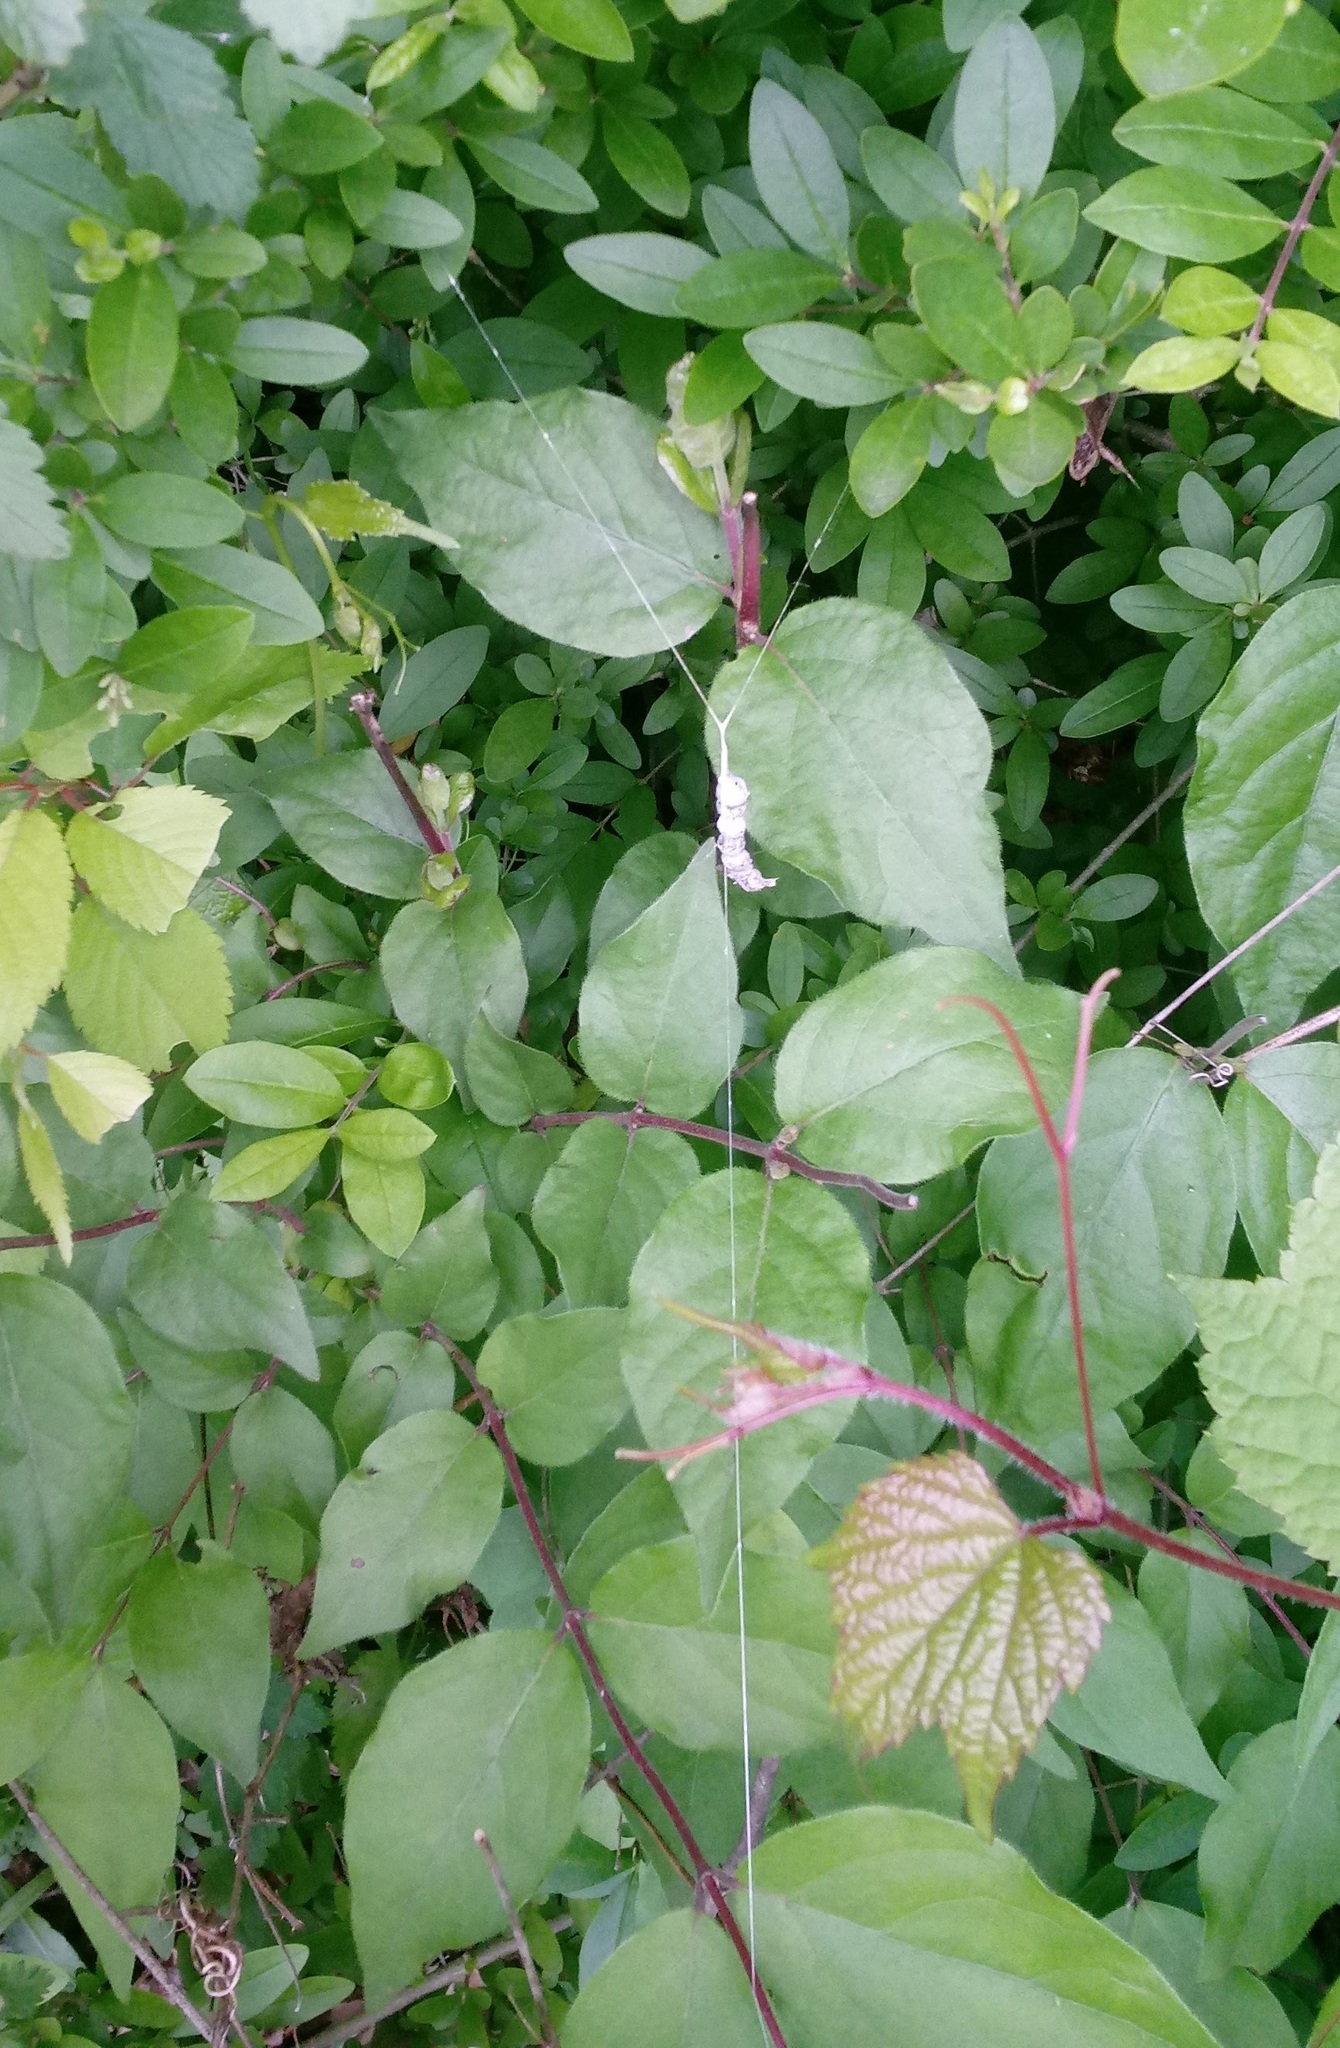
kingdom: Animalia
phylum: Arthropoda
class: Arachnida
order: Araneae
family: Araneidae
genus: Mecynogea
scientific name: Mecynogea lemniscata
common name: Orb weavers
